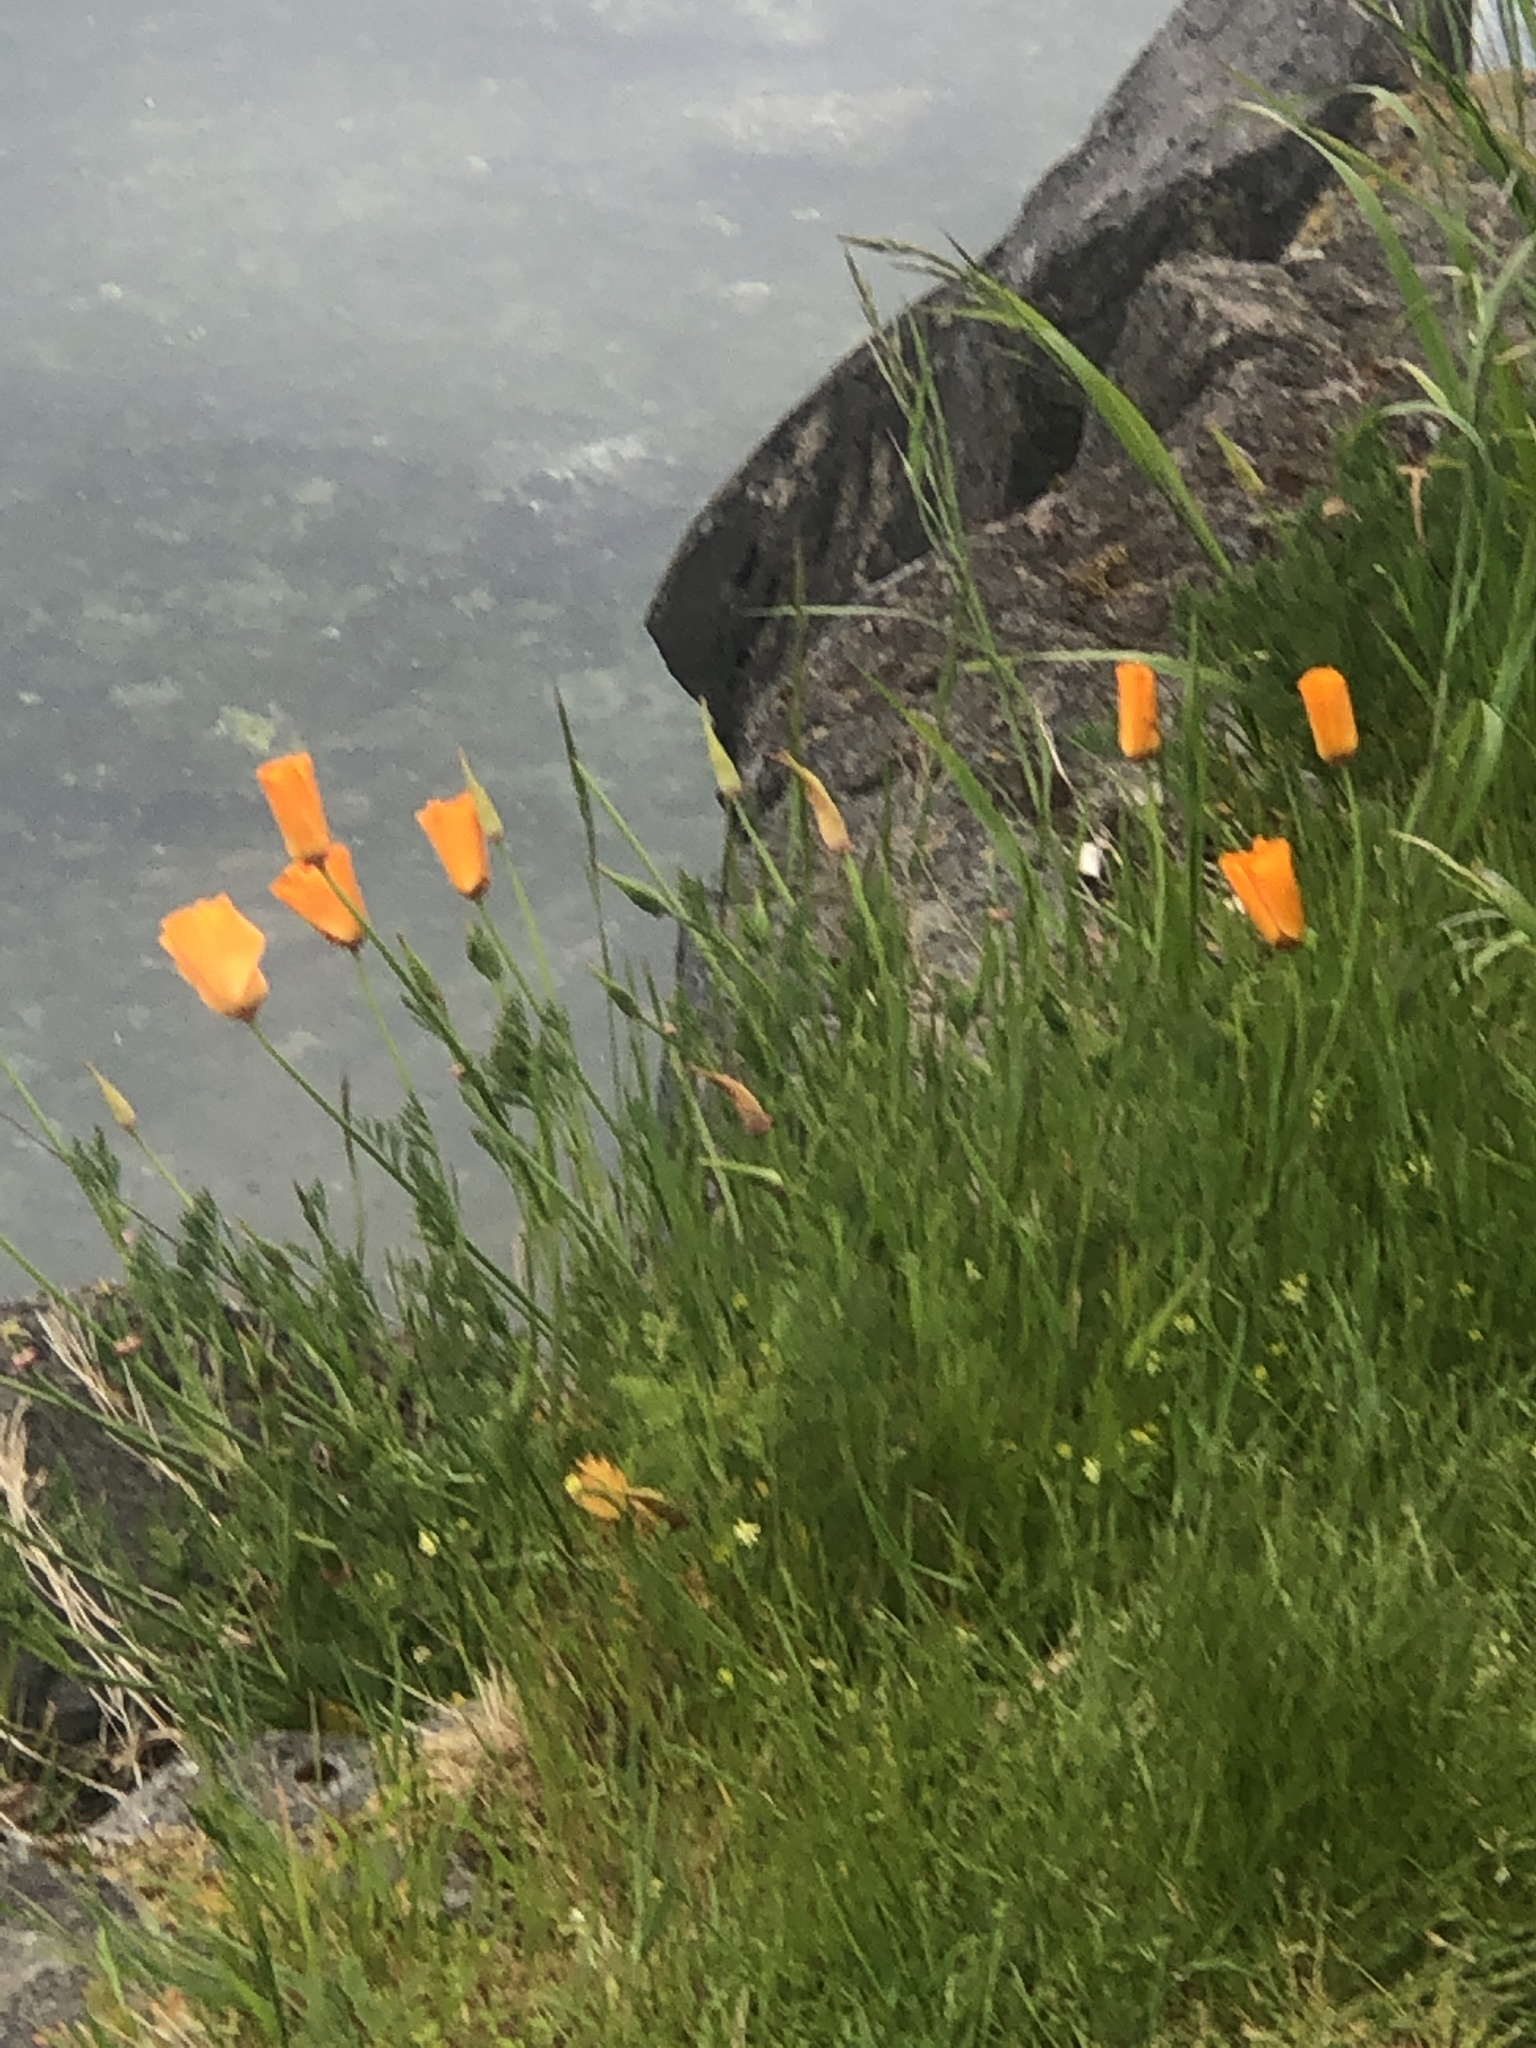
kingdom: Plantae
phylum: Tracheophyta
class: Magnoliopsida
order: Ranunculales
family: Papaveraceae
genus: Eschscholzia
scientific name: Eschscholzia californica
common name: California poppy
